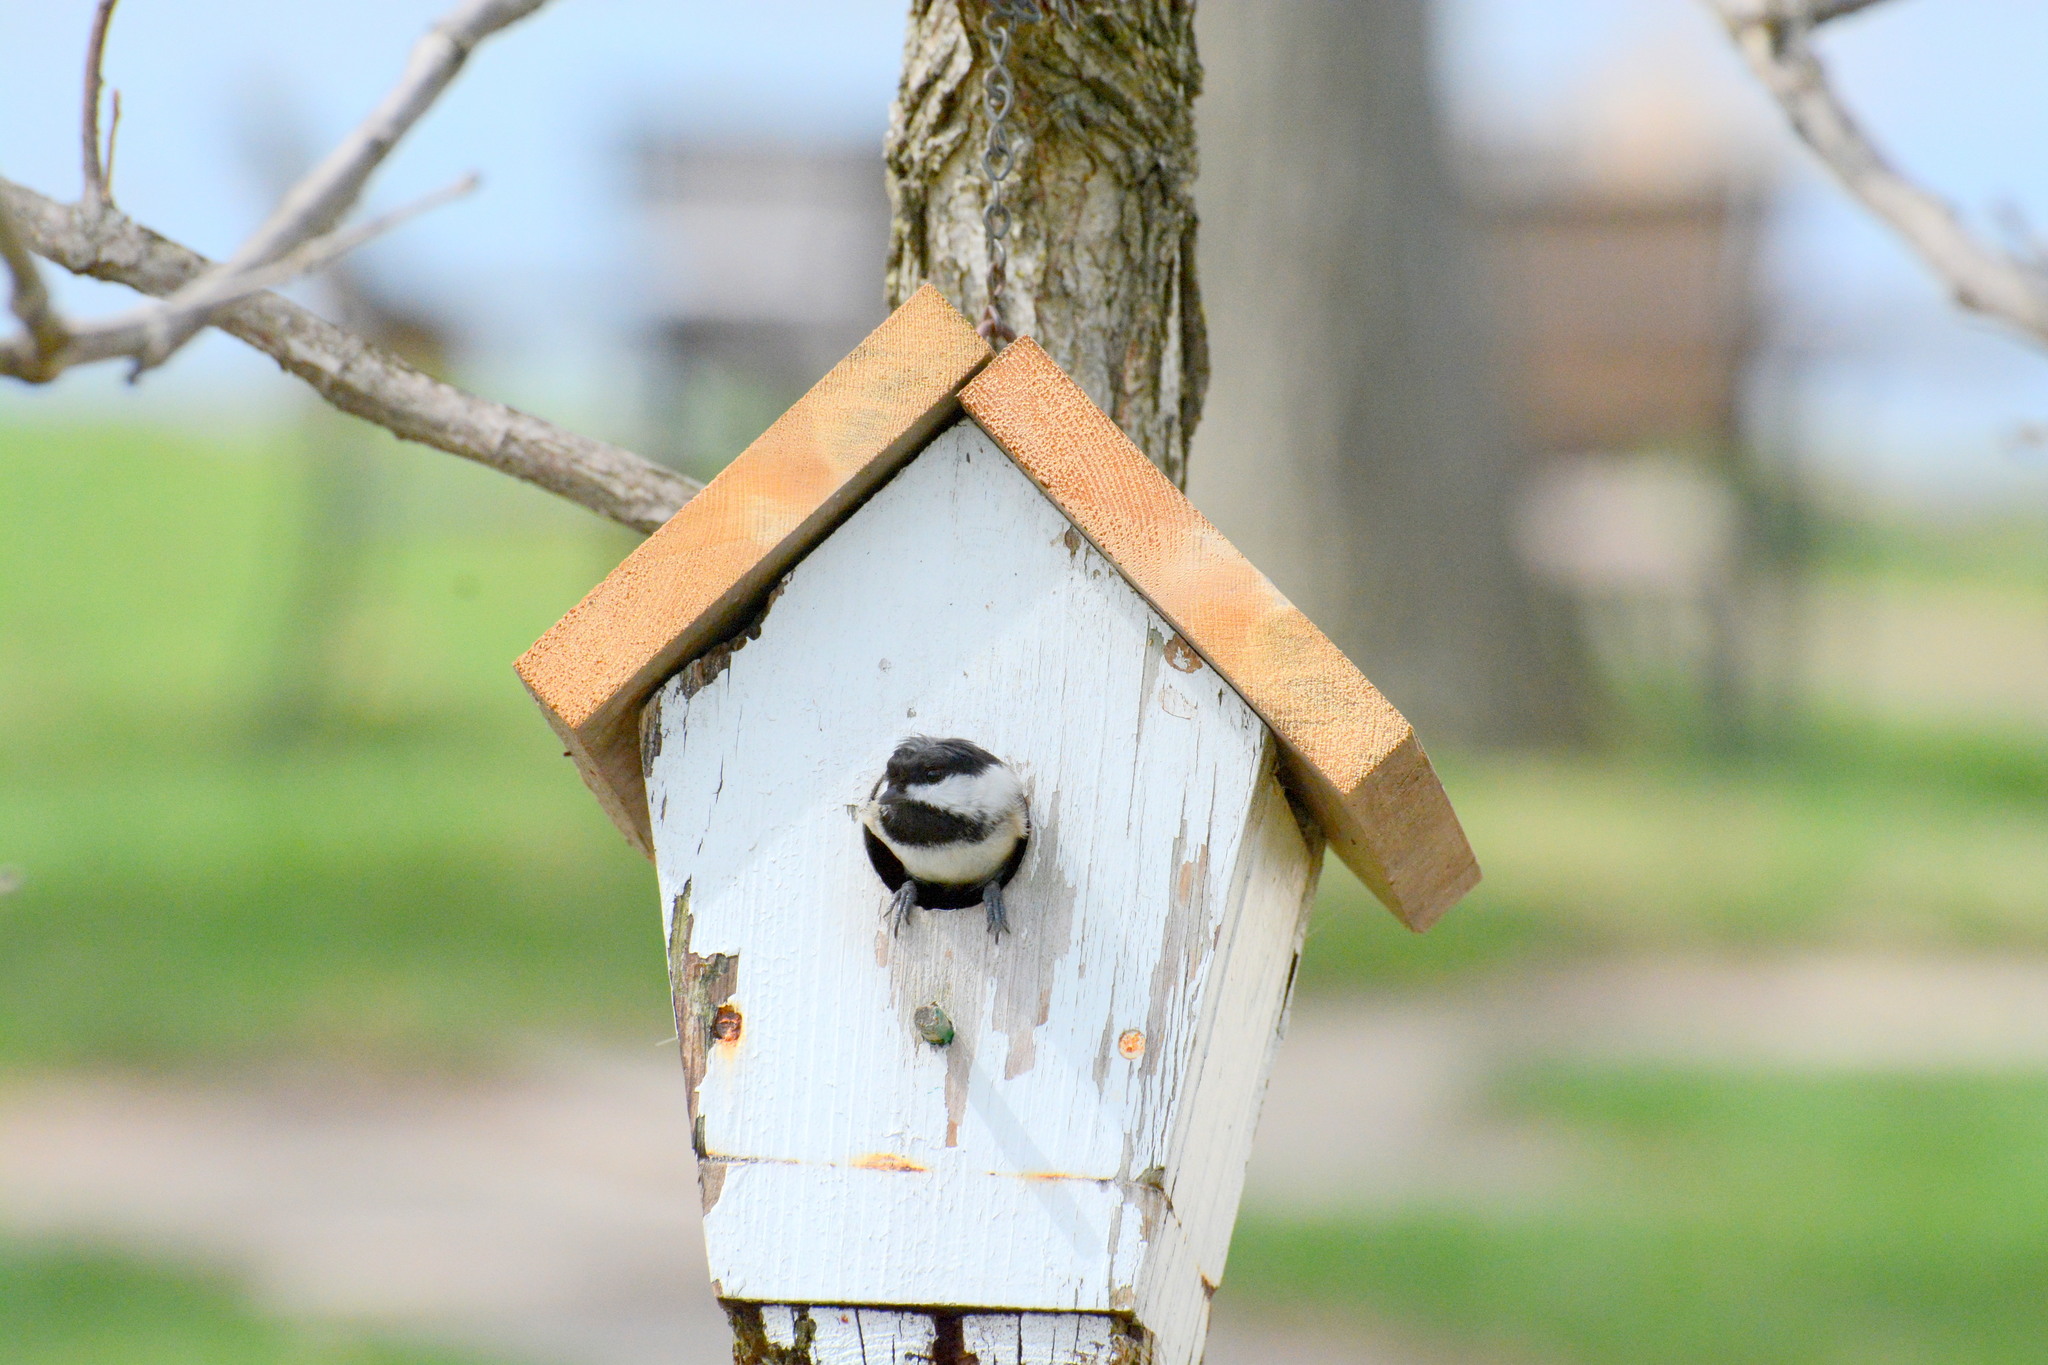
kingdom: Animalia
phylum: Chordata
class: Aves
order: Passeriformes
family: Paridae
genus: Poecile
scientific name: Poecile atricapillus
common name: Black-capped chickadee
